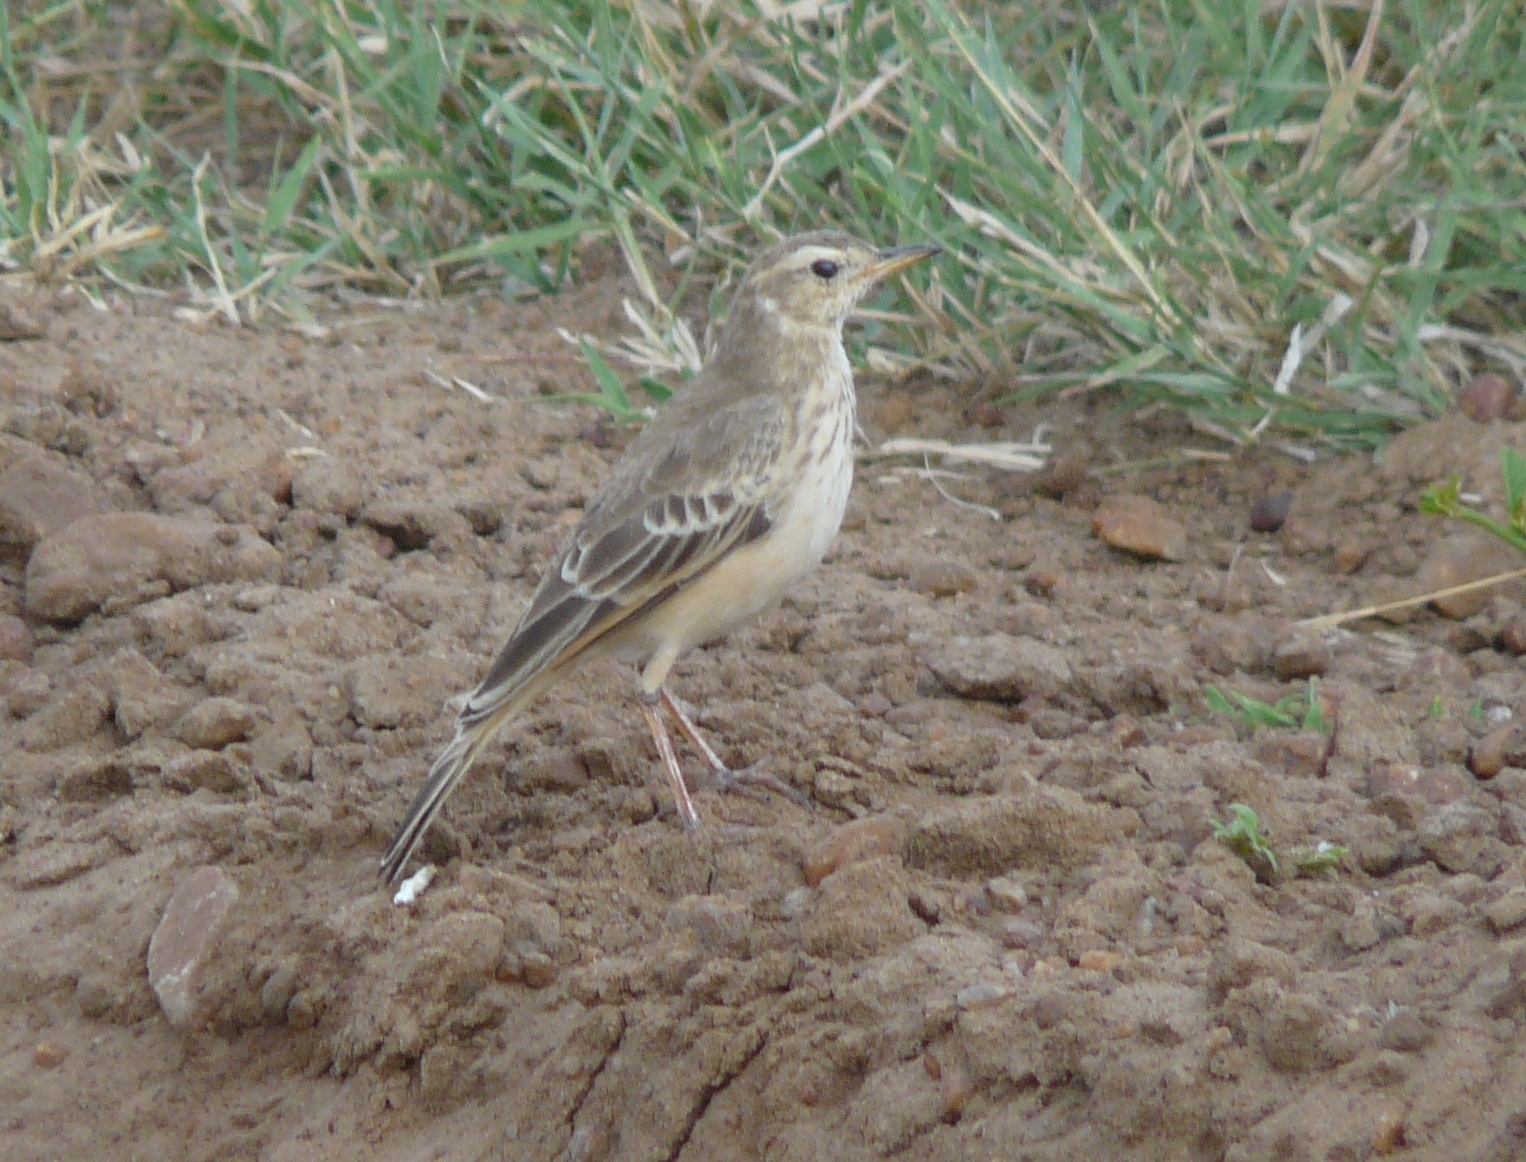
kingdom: Animalia
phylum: Chordata
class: Aves
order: Passeriformes
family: Motacillidae
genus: Anthus
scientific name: Anthus leucophrys
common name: Plain-backed pipit
